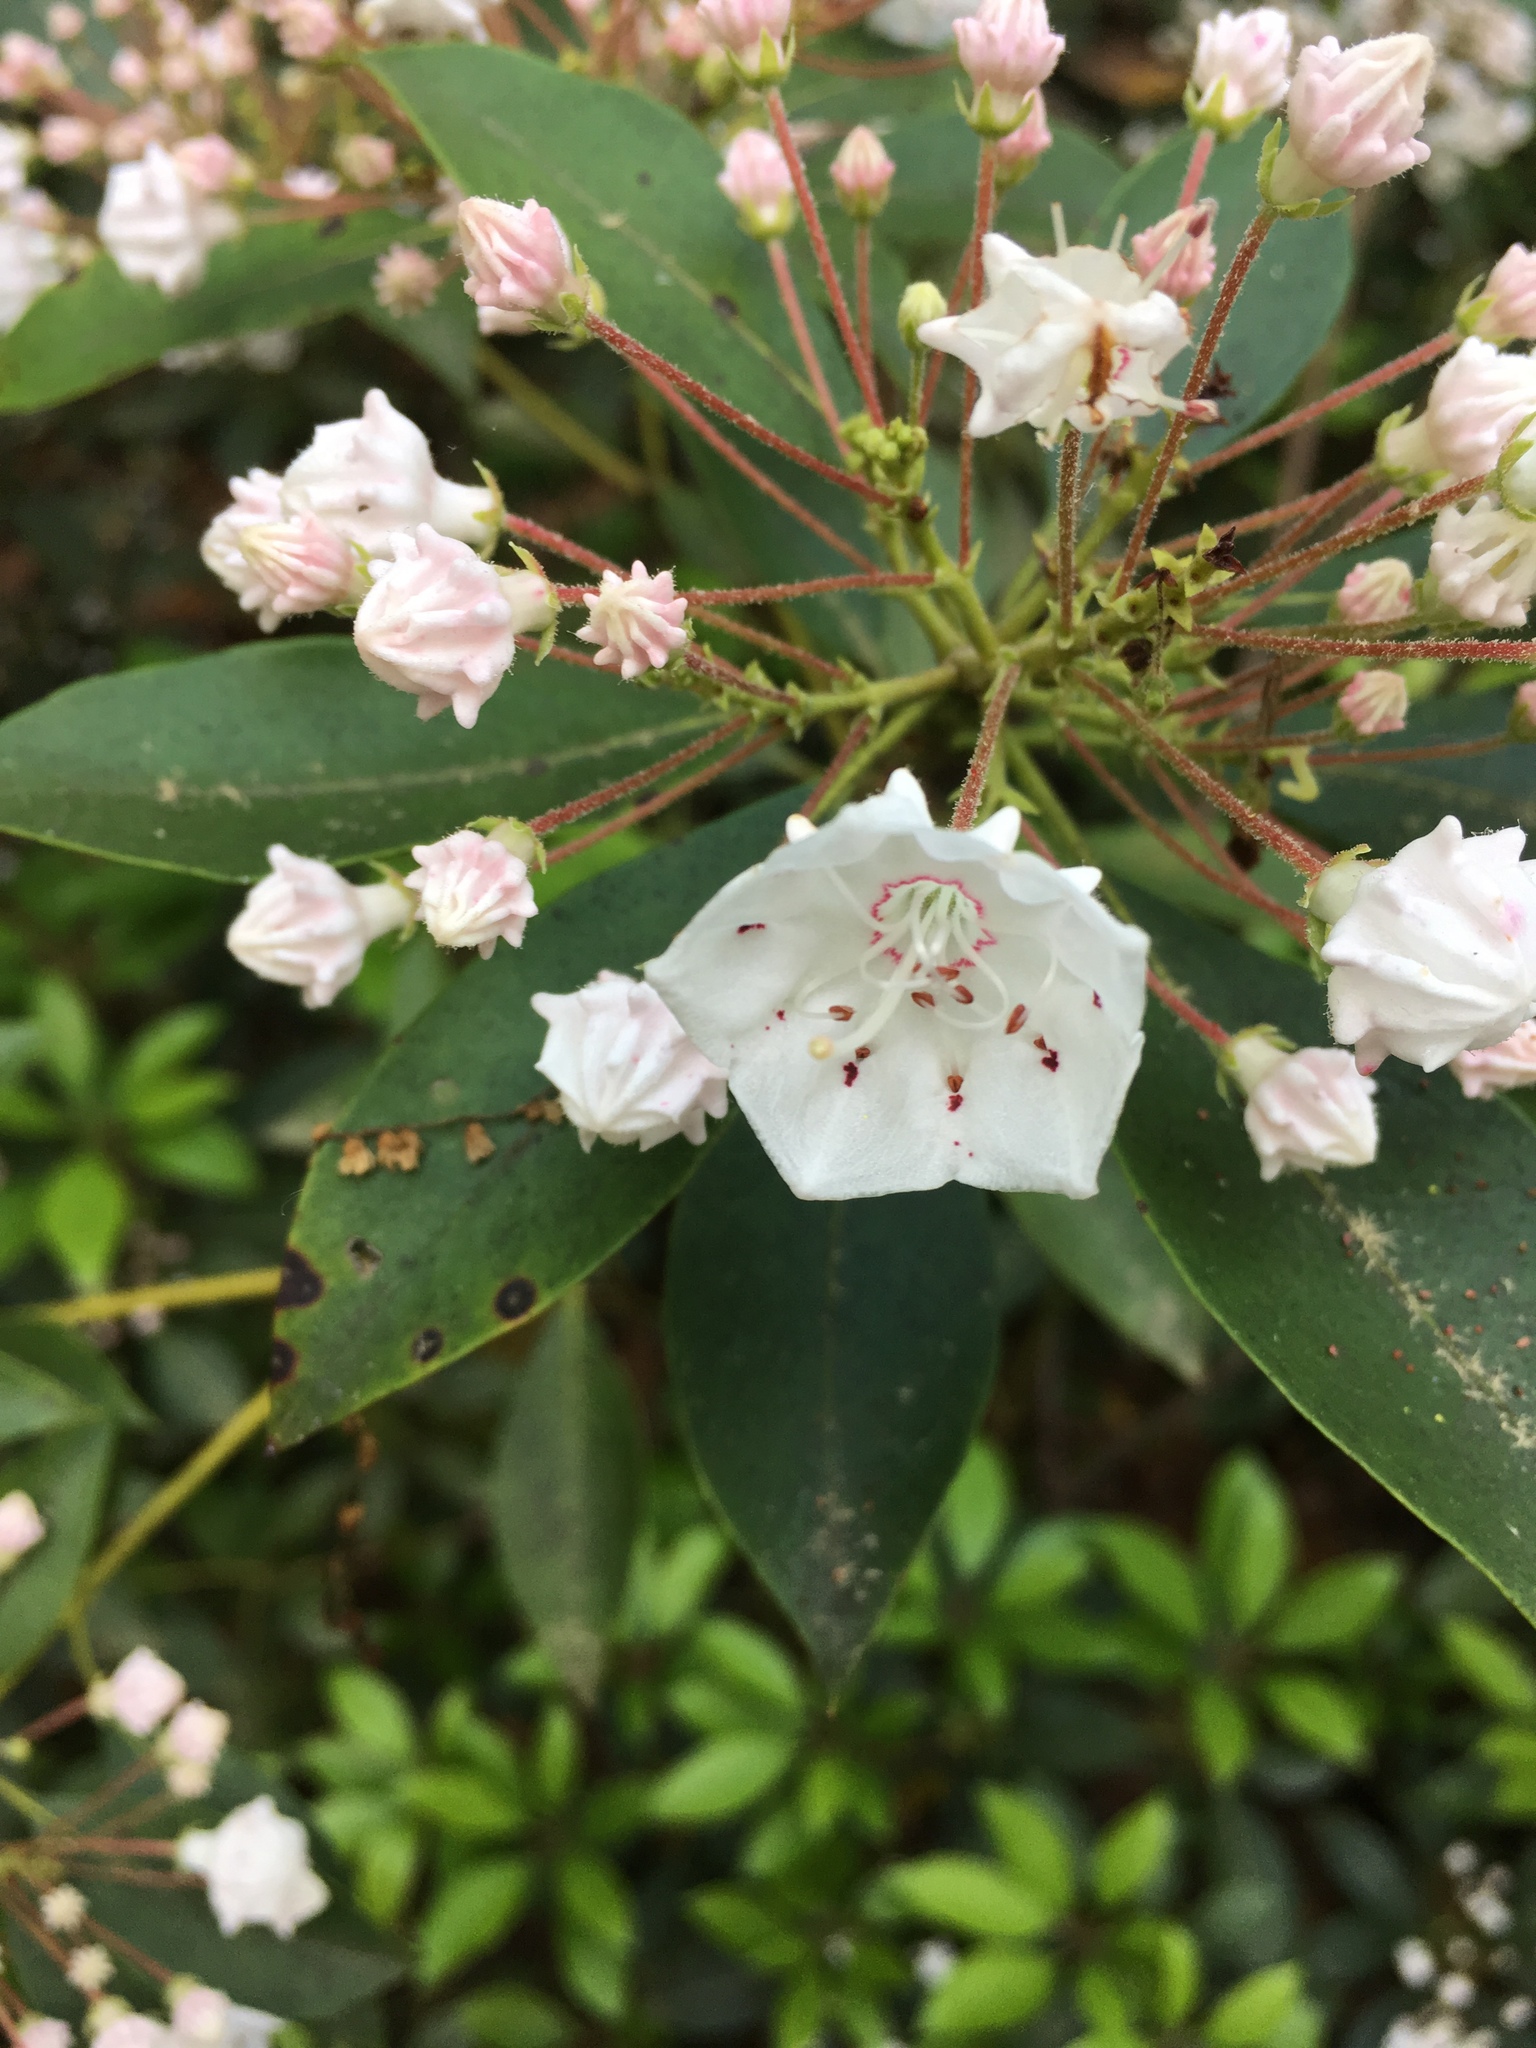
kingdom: Plantae
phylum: Tracheophyta
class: Magnoliopsida
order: Ericales
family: Ericaceae
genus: Kalmia
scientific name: Kalmia latifolia
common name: Mountain-laurel
